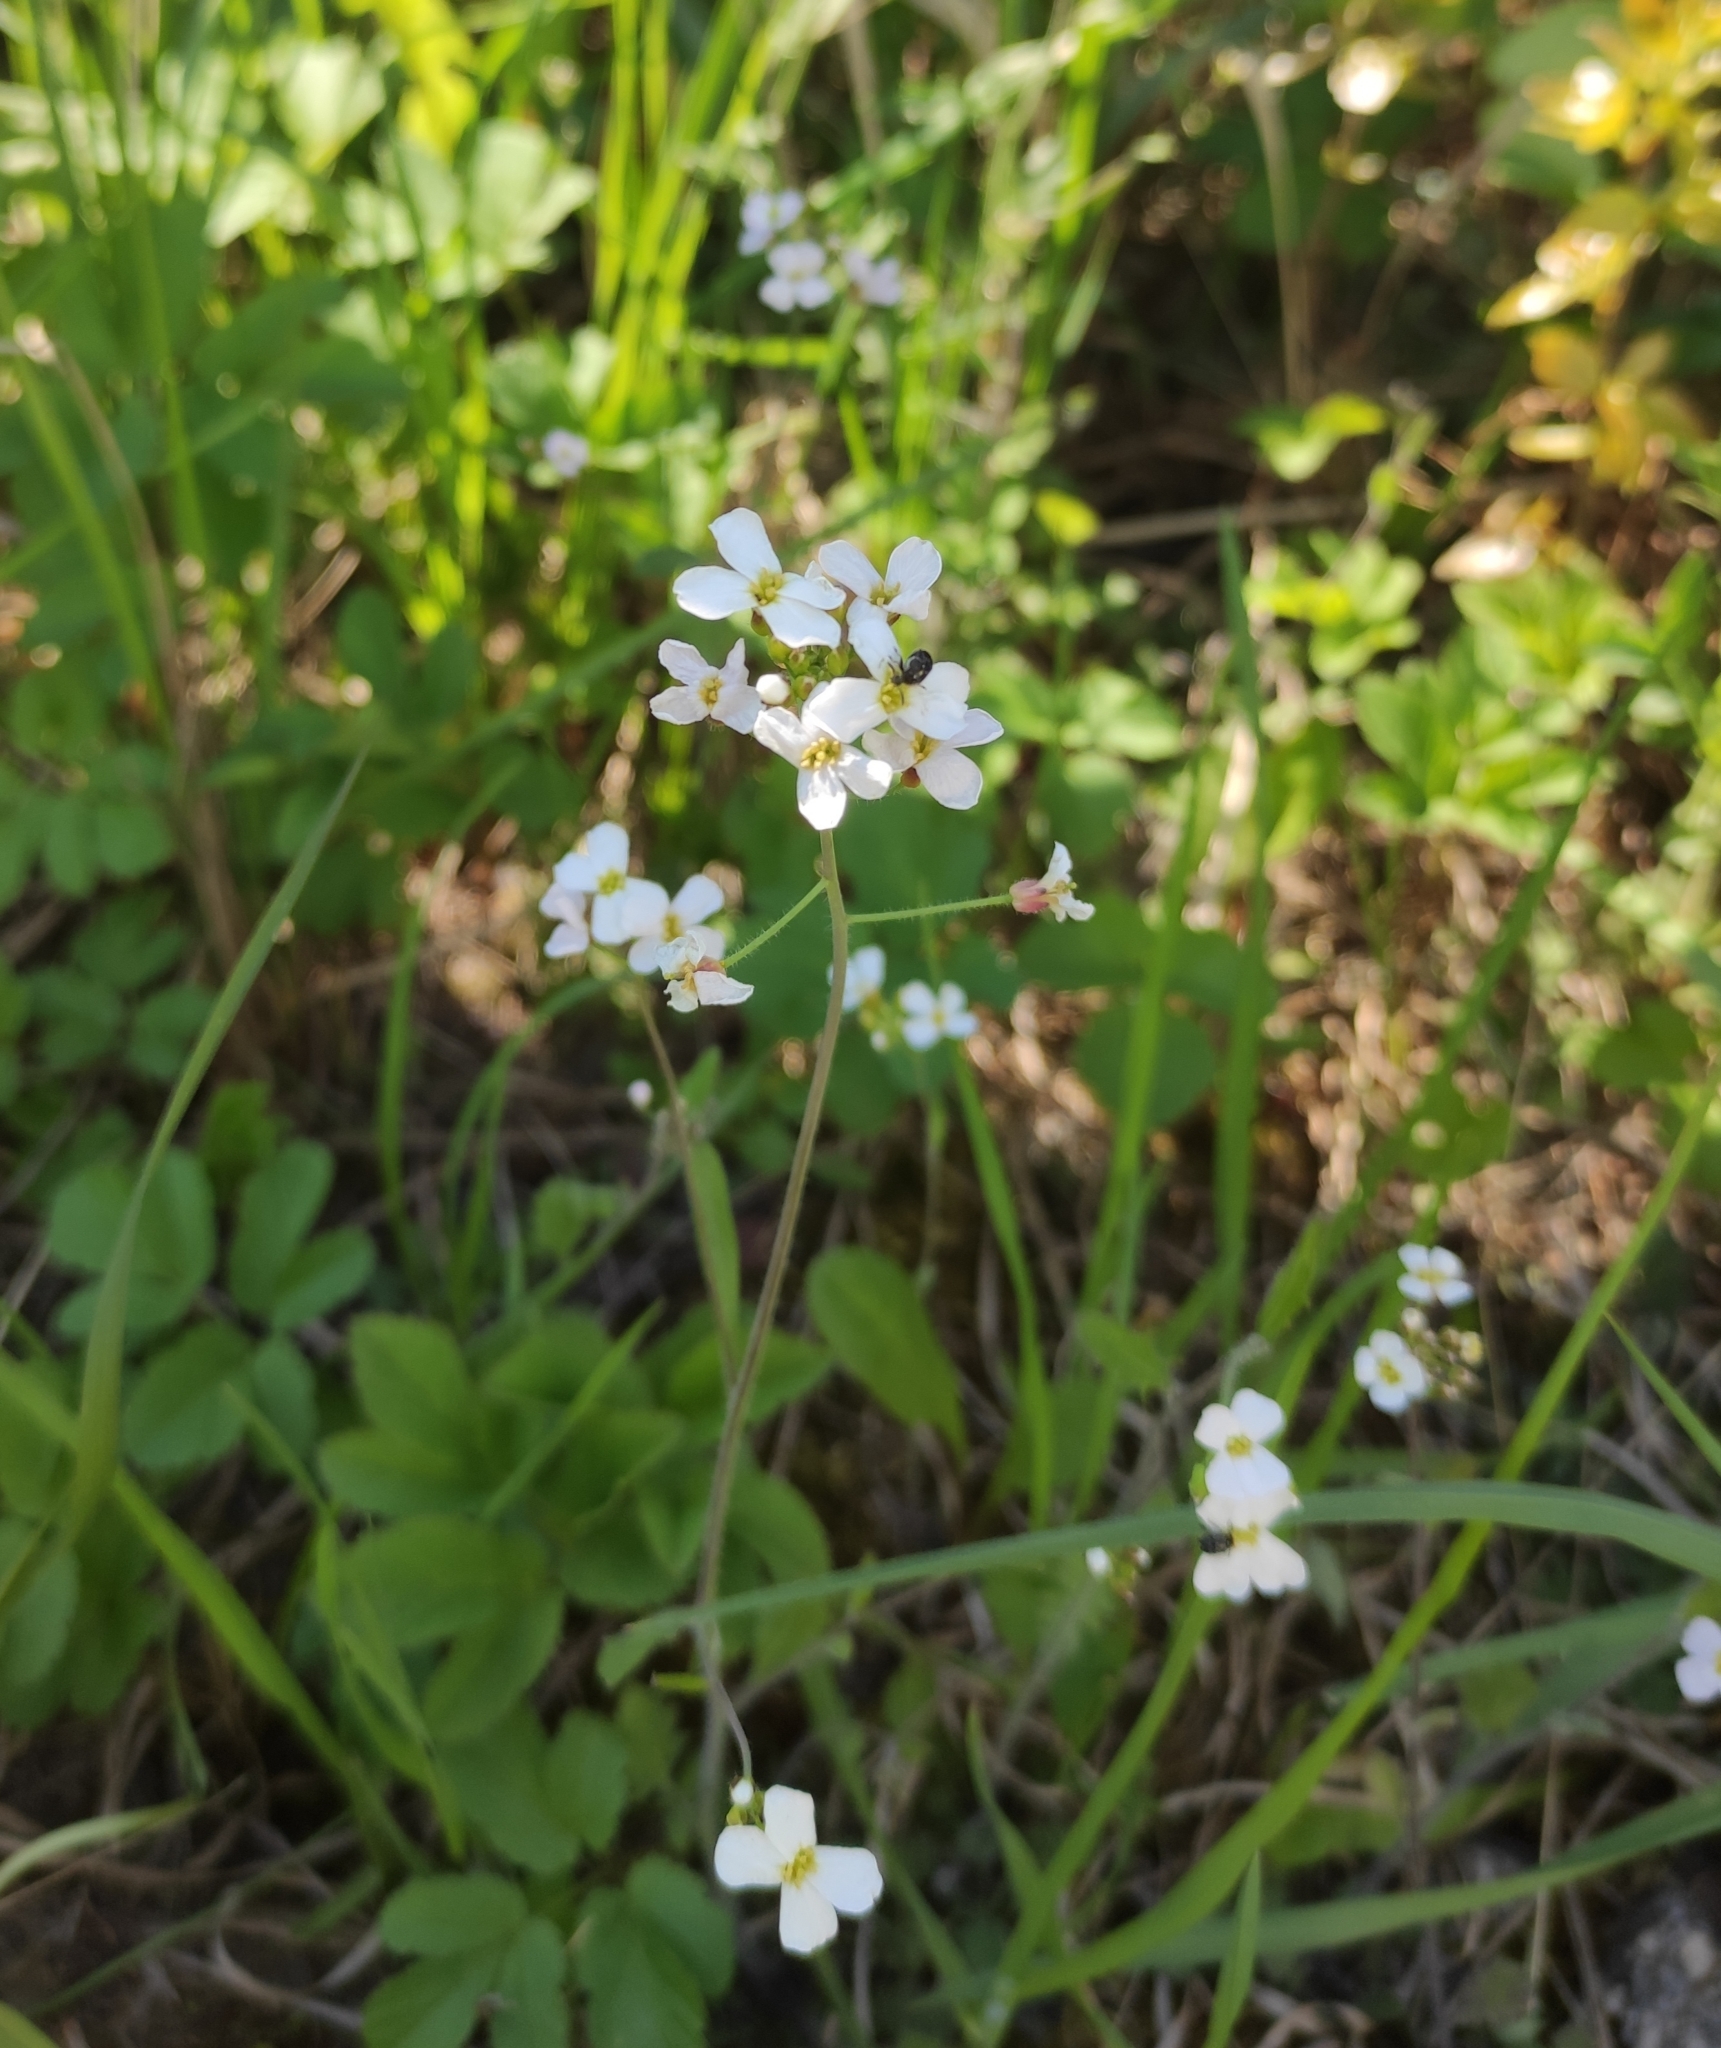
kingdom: Plantae
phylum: Tracheophyta
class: Magnoliopsida
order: Brassicales
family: Brassicaceae
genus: Arabidopsis
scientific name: Arabidopsis arenosa
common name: Sand rock-cress
